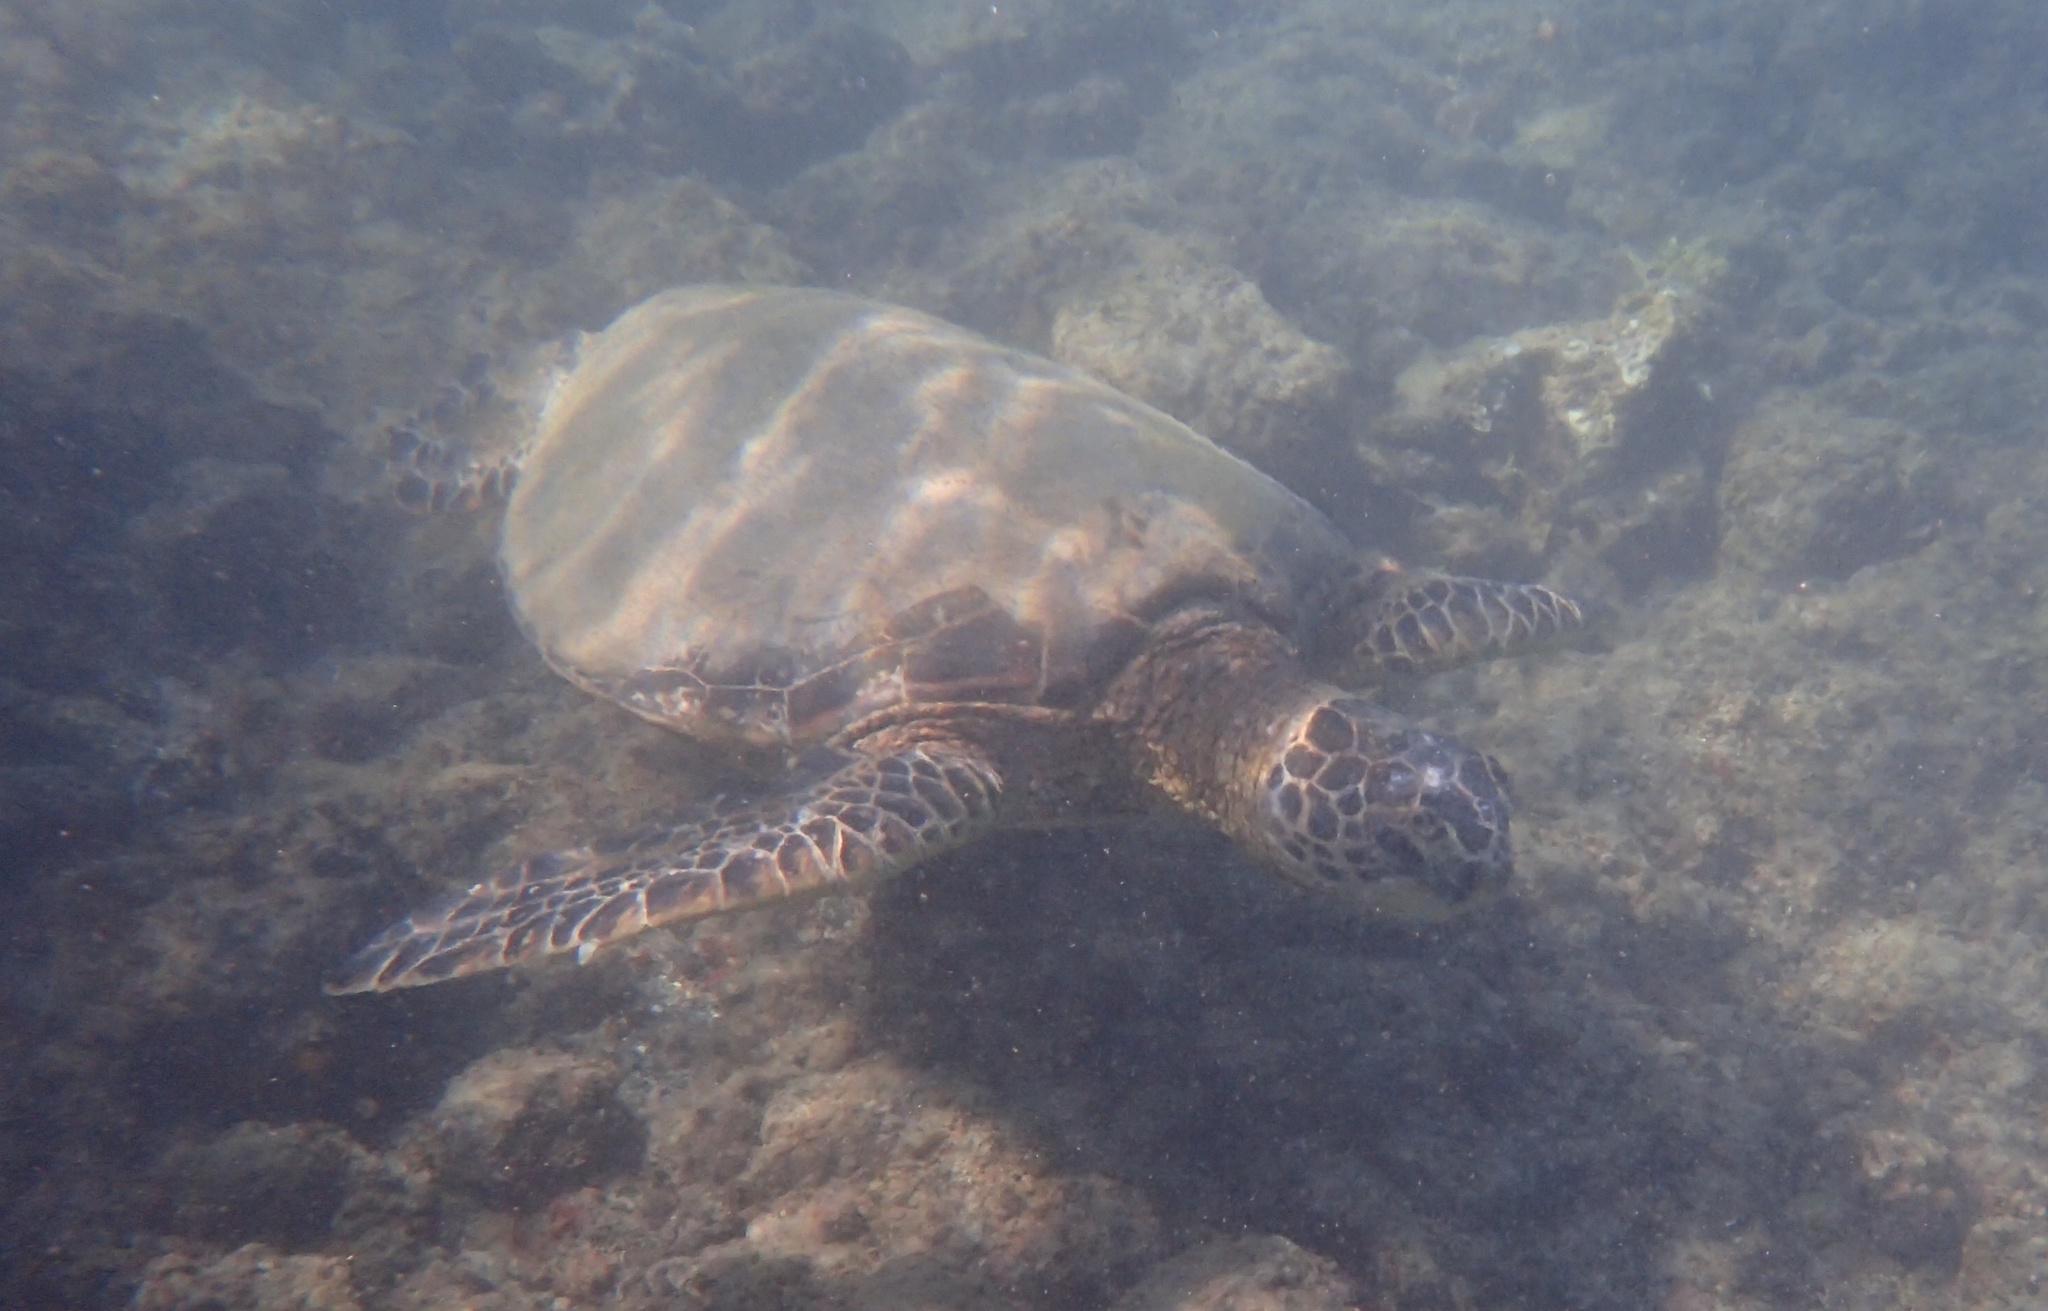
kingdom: Animalia
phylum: Chordata
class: Testudines
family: Cheloniidae
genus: Chelonia
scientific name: Chelonia mydas
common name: Green turtle
